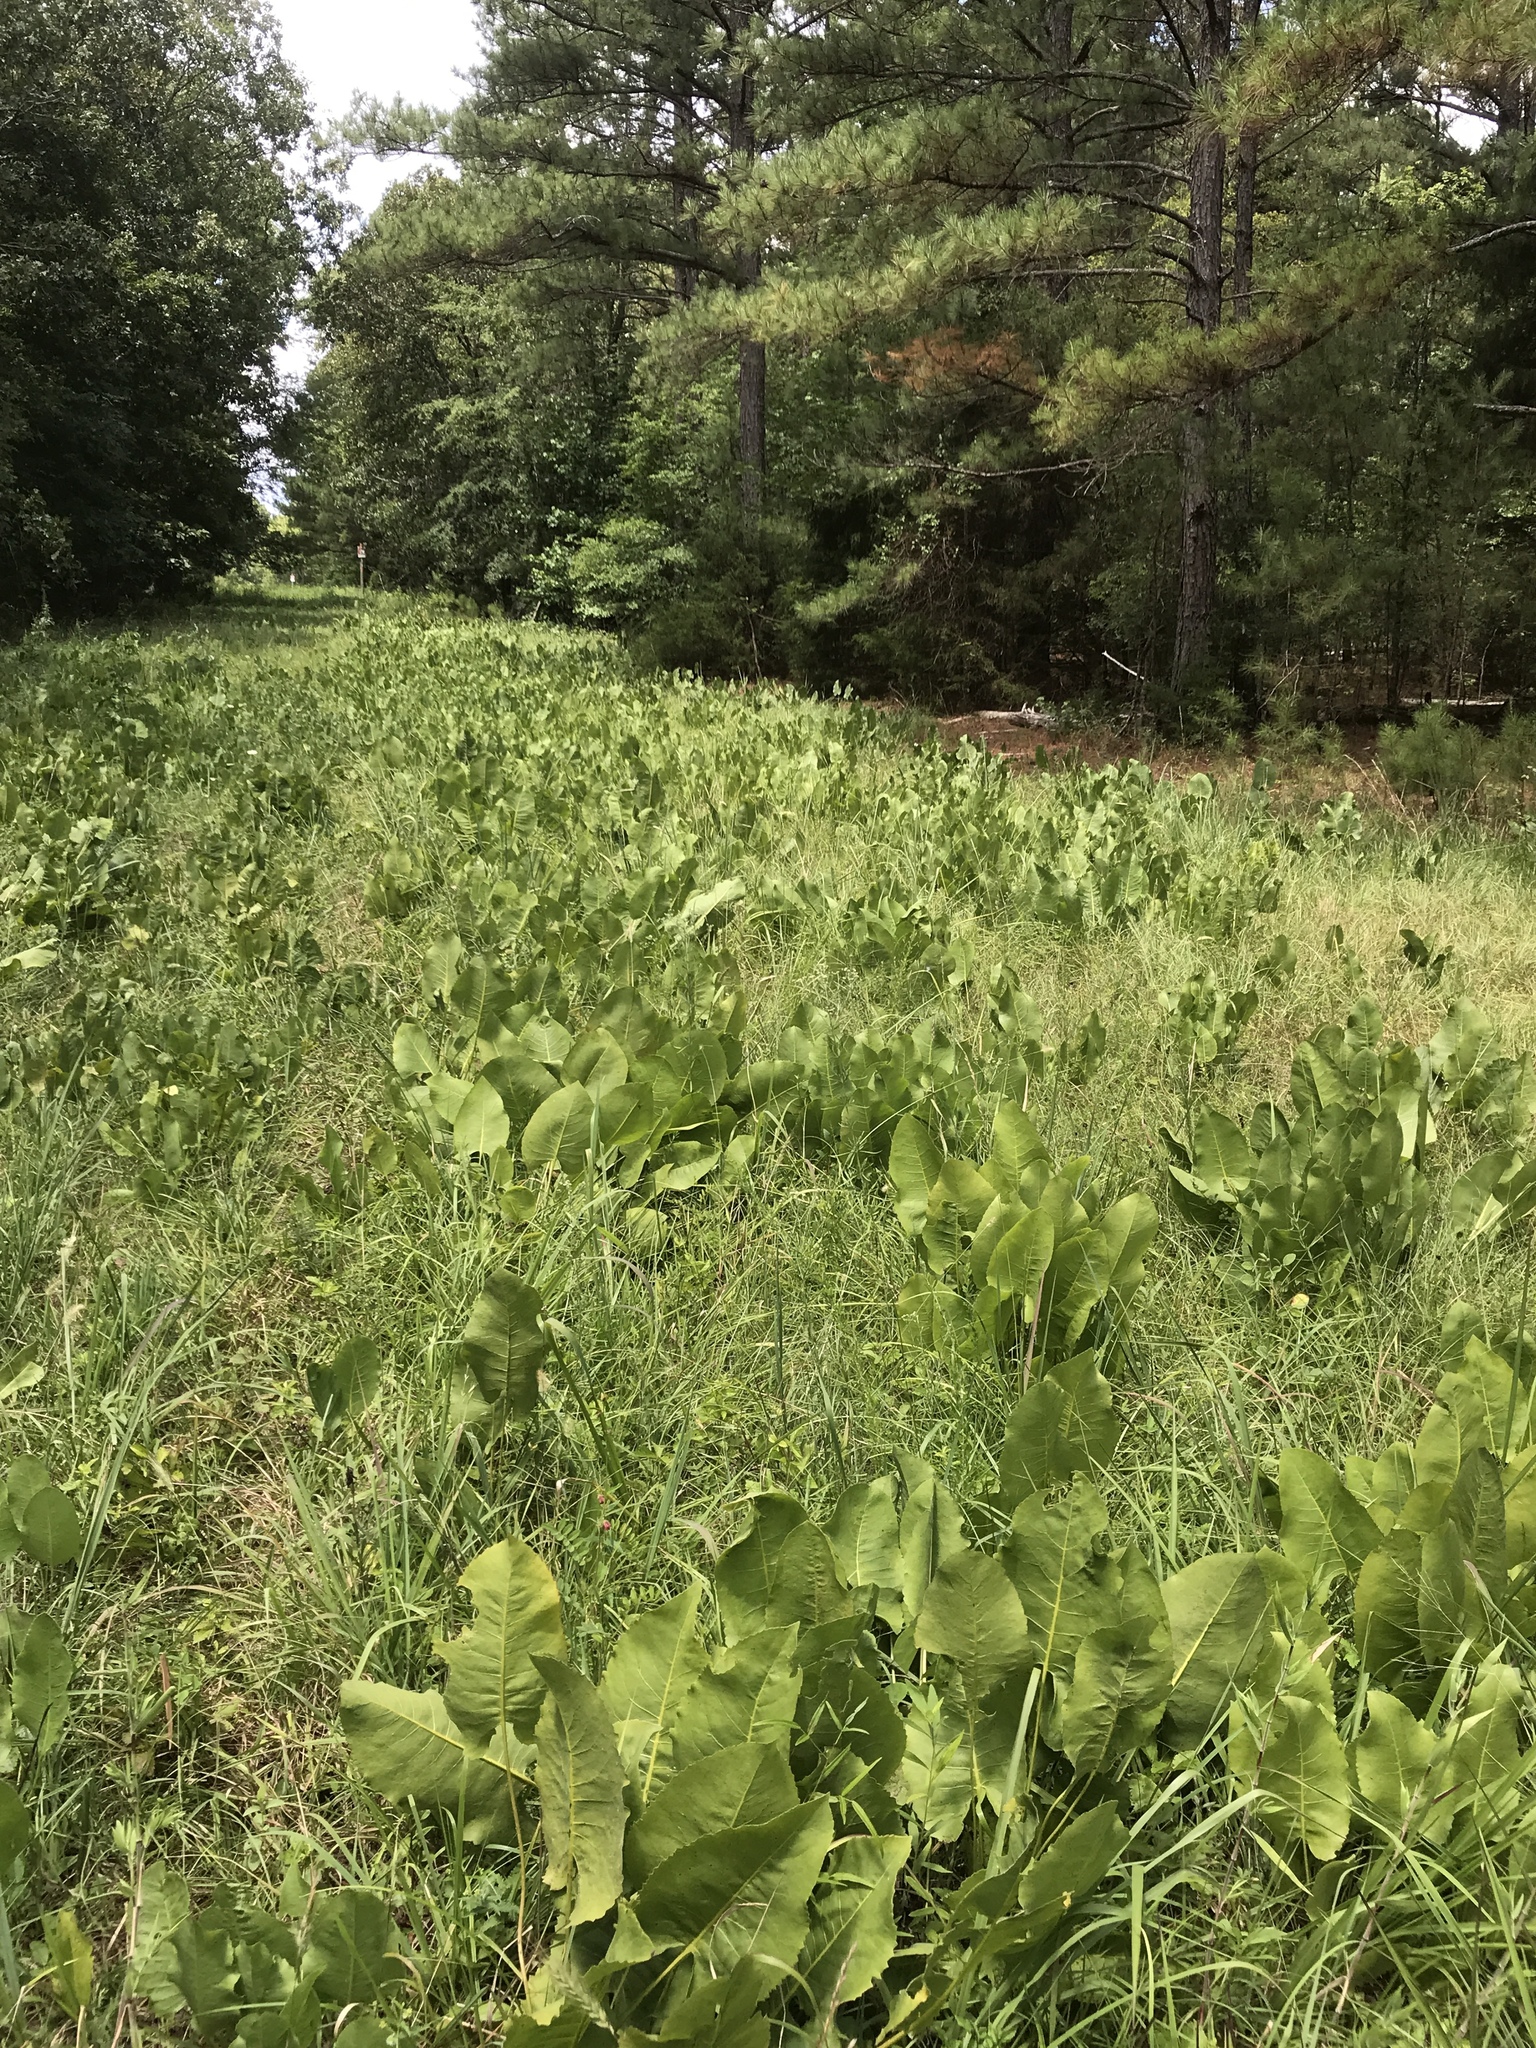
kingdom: Plantae
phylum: Tracheophyta
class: Magnoliopsida
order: Asterales
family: Asteraceae
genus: Silphium
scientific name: Silphium terebinthinaceum
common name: Basal-leaf rosinweed
